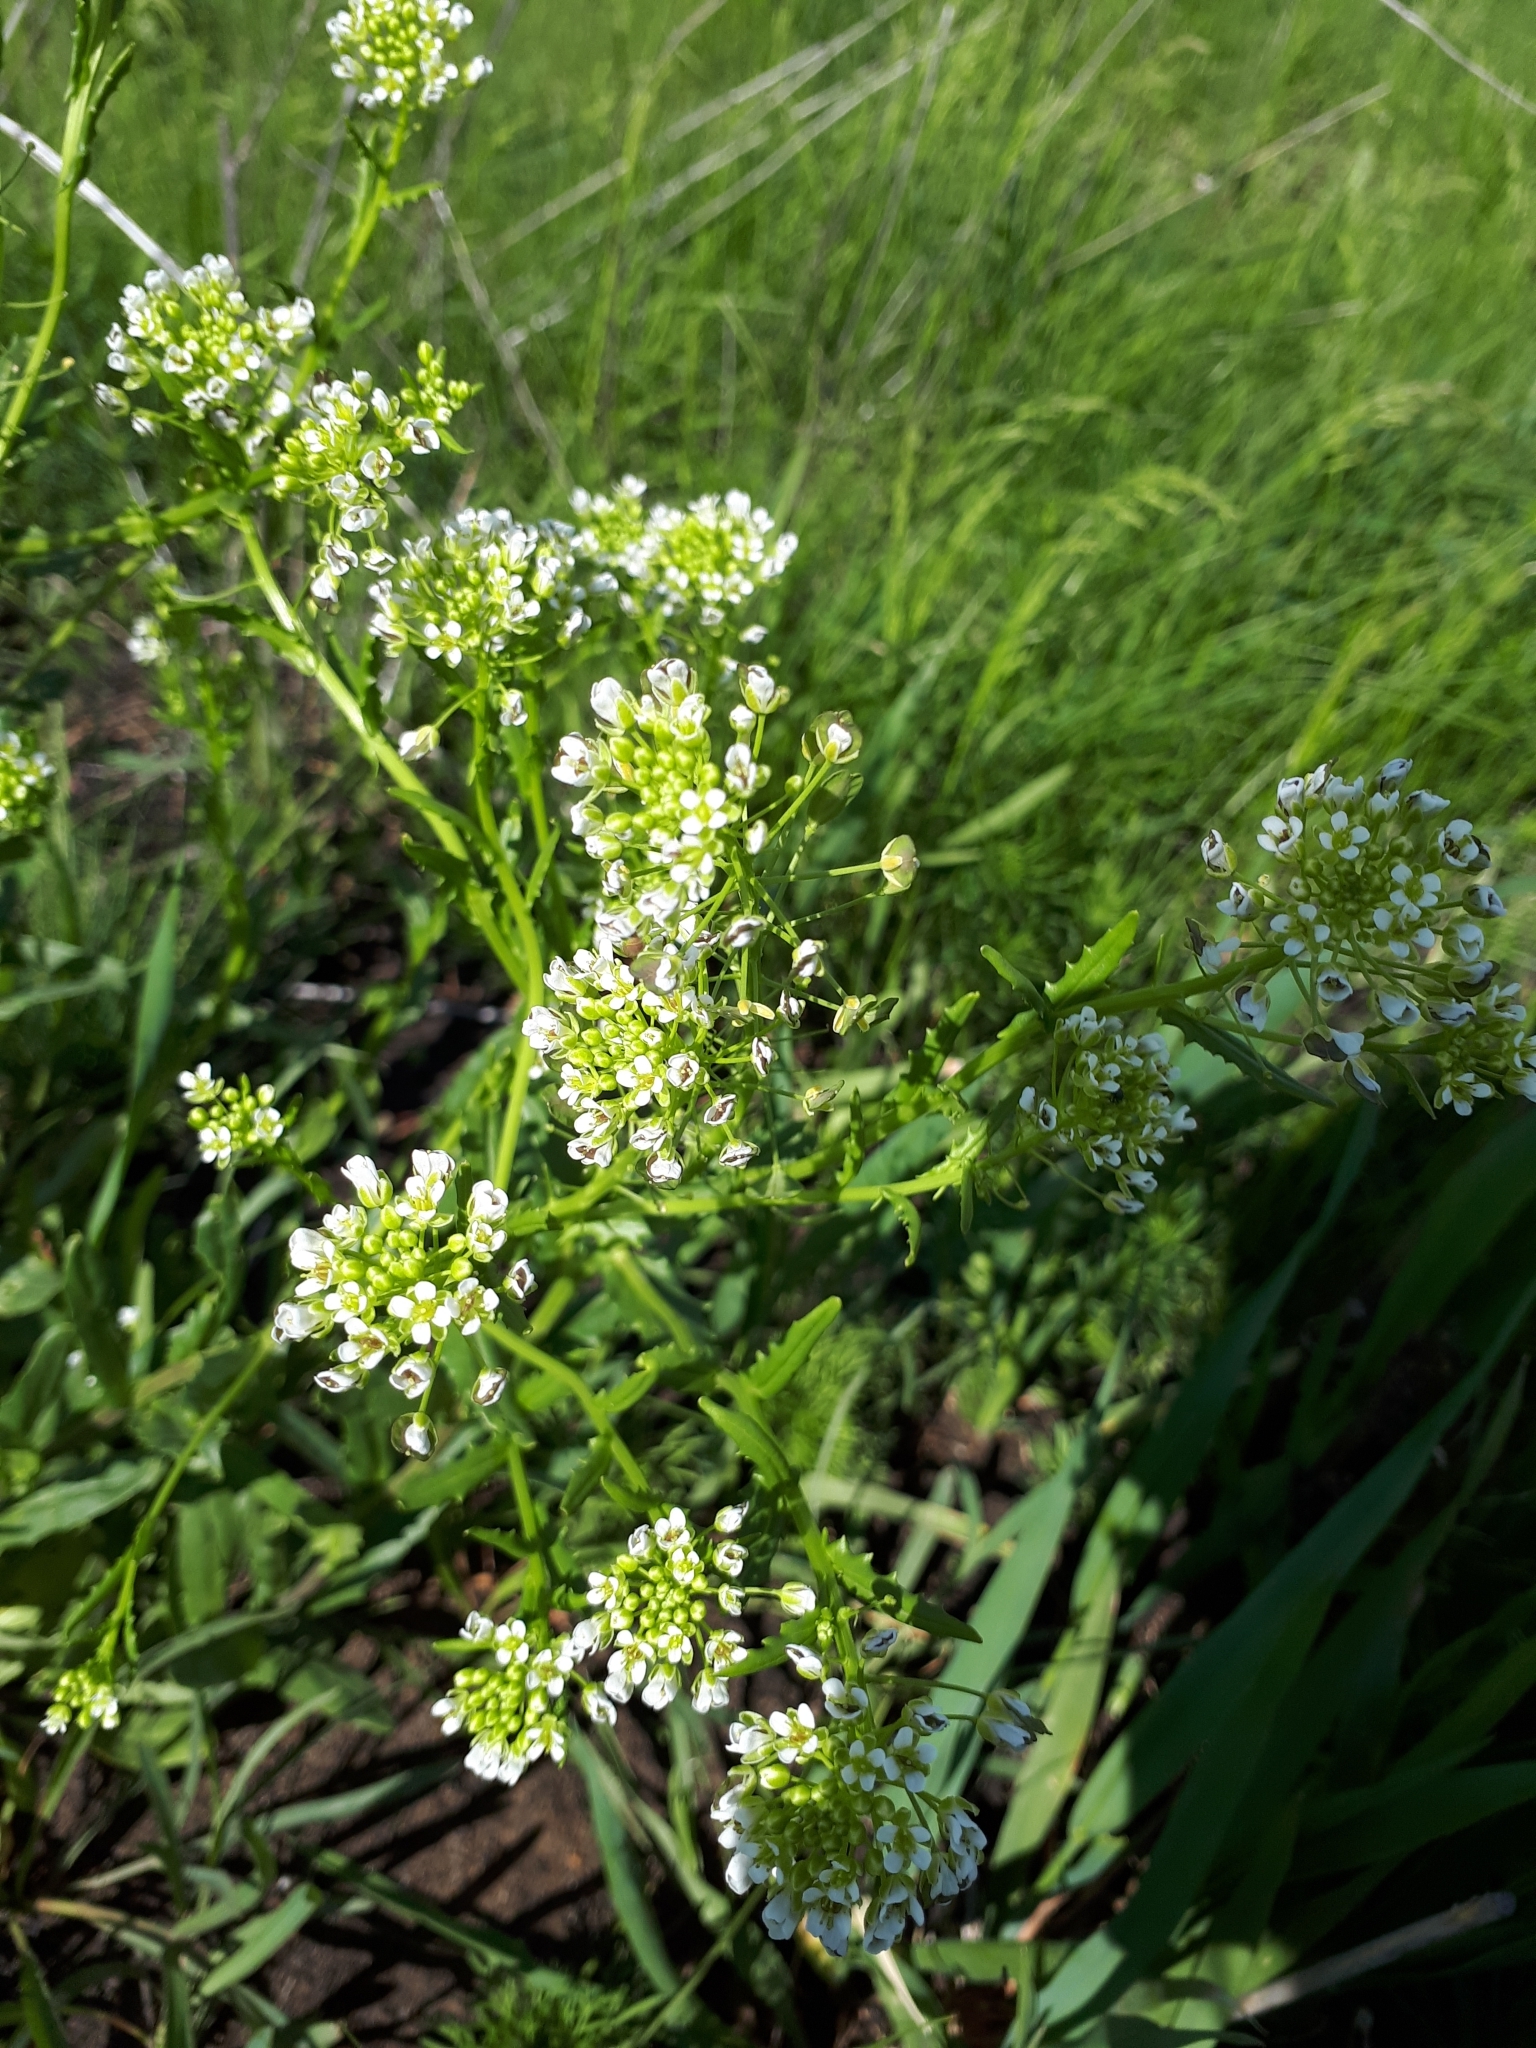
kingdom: Plantae
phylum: Tracheophyta
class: Magnoliopsida
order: Brassicales
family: Brassicaceae
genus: Thlaspi
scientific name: Thlaspi arvense
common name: Field pennycress
